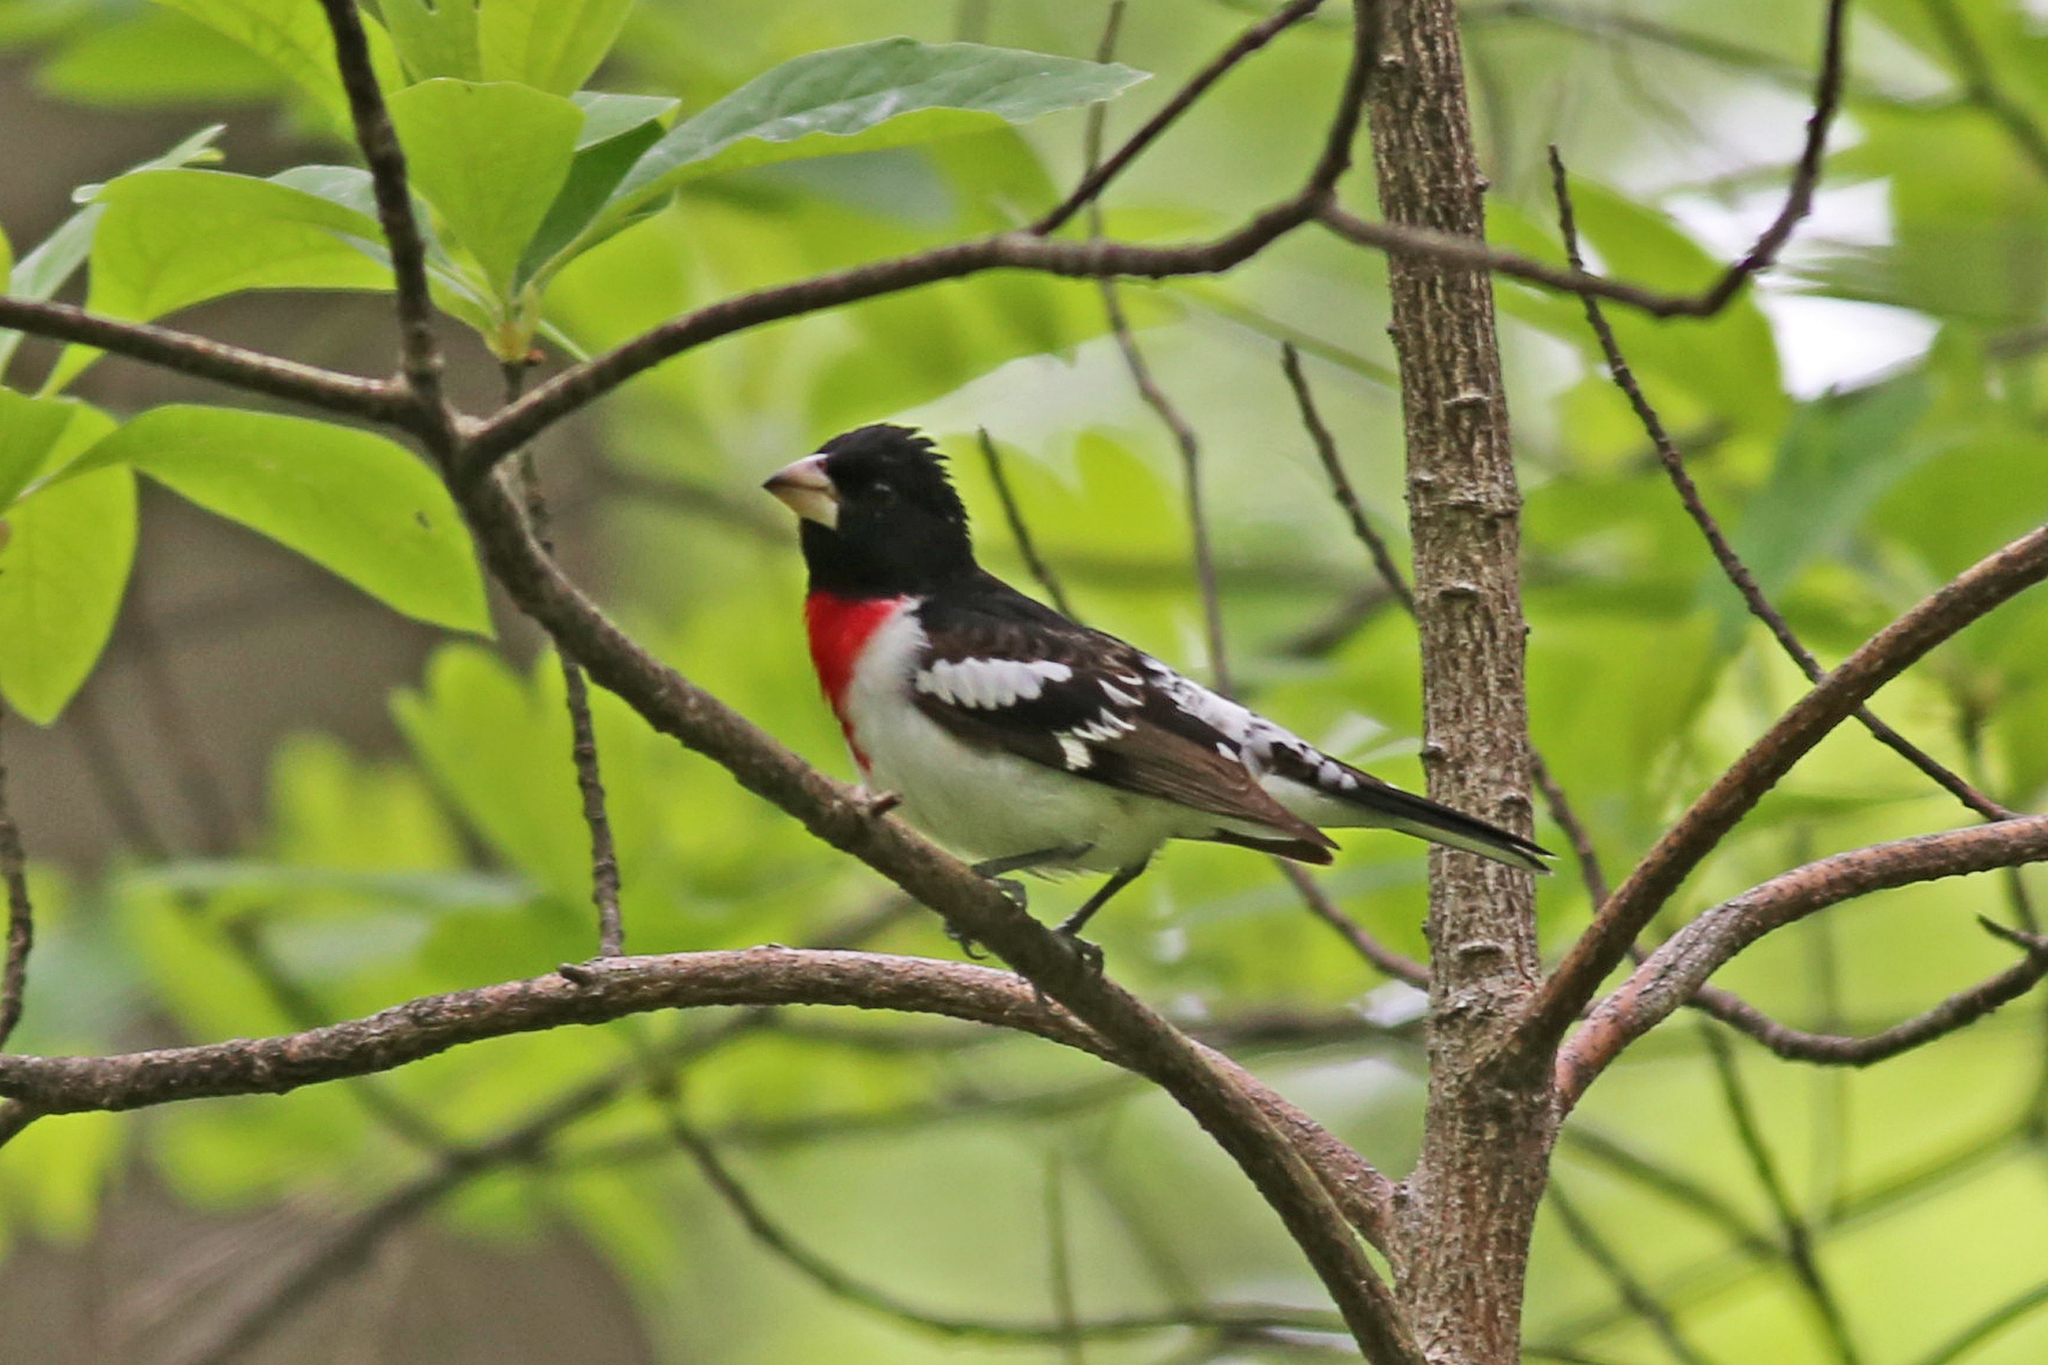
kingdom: Animalia
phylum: Chordata
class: Aves
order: Passeriformes
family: Cardinalidae
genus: Pheucticus
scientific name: Pheucticus ludovicianus
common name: Rose-breasted grosbeak
